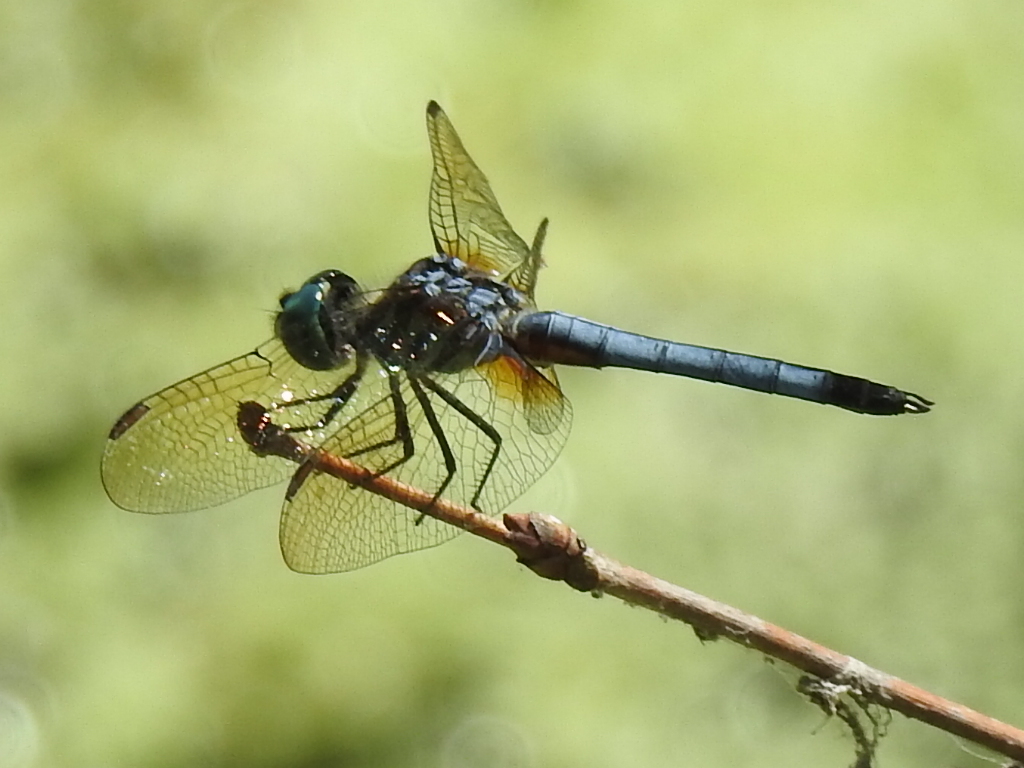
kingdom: Animalia
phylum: Arthropoda
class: Insecta
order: Odonata
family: Libellulidae
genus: Pachydiplax
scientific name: Pachydiplax longipennis
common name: Blue dasher
